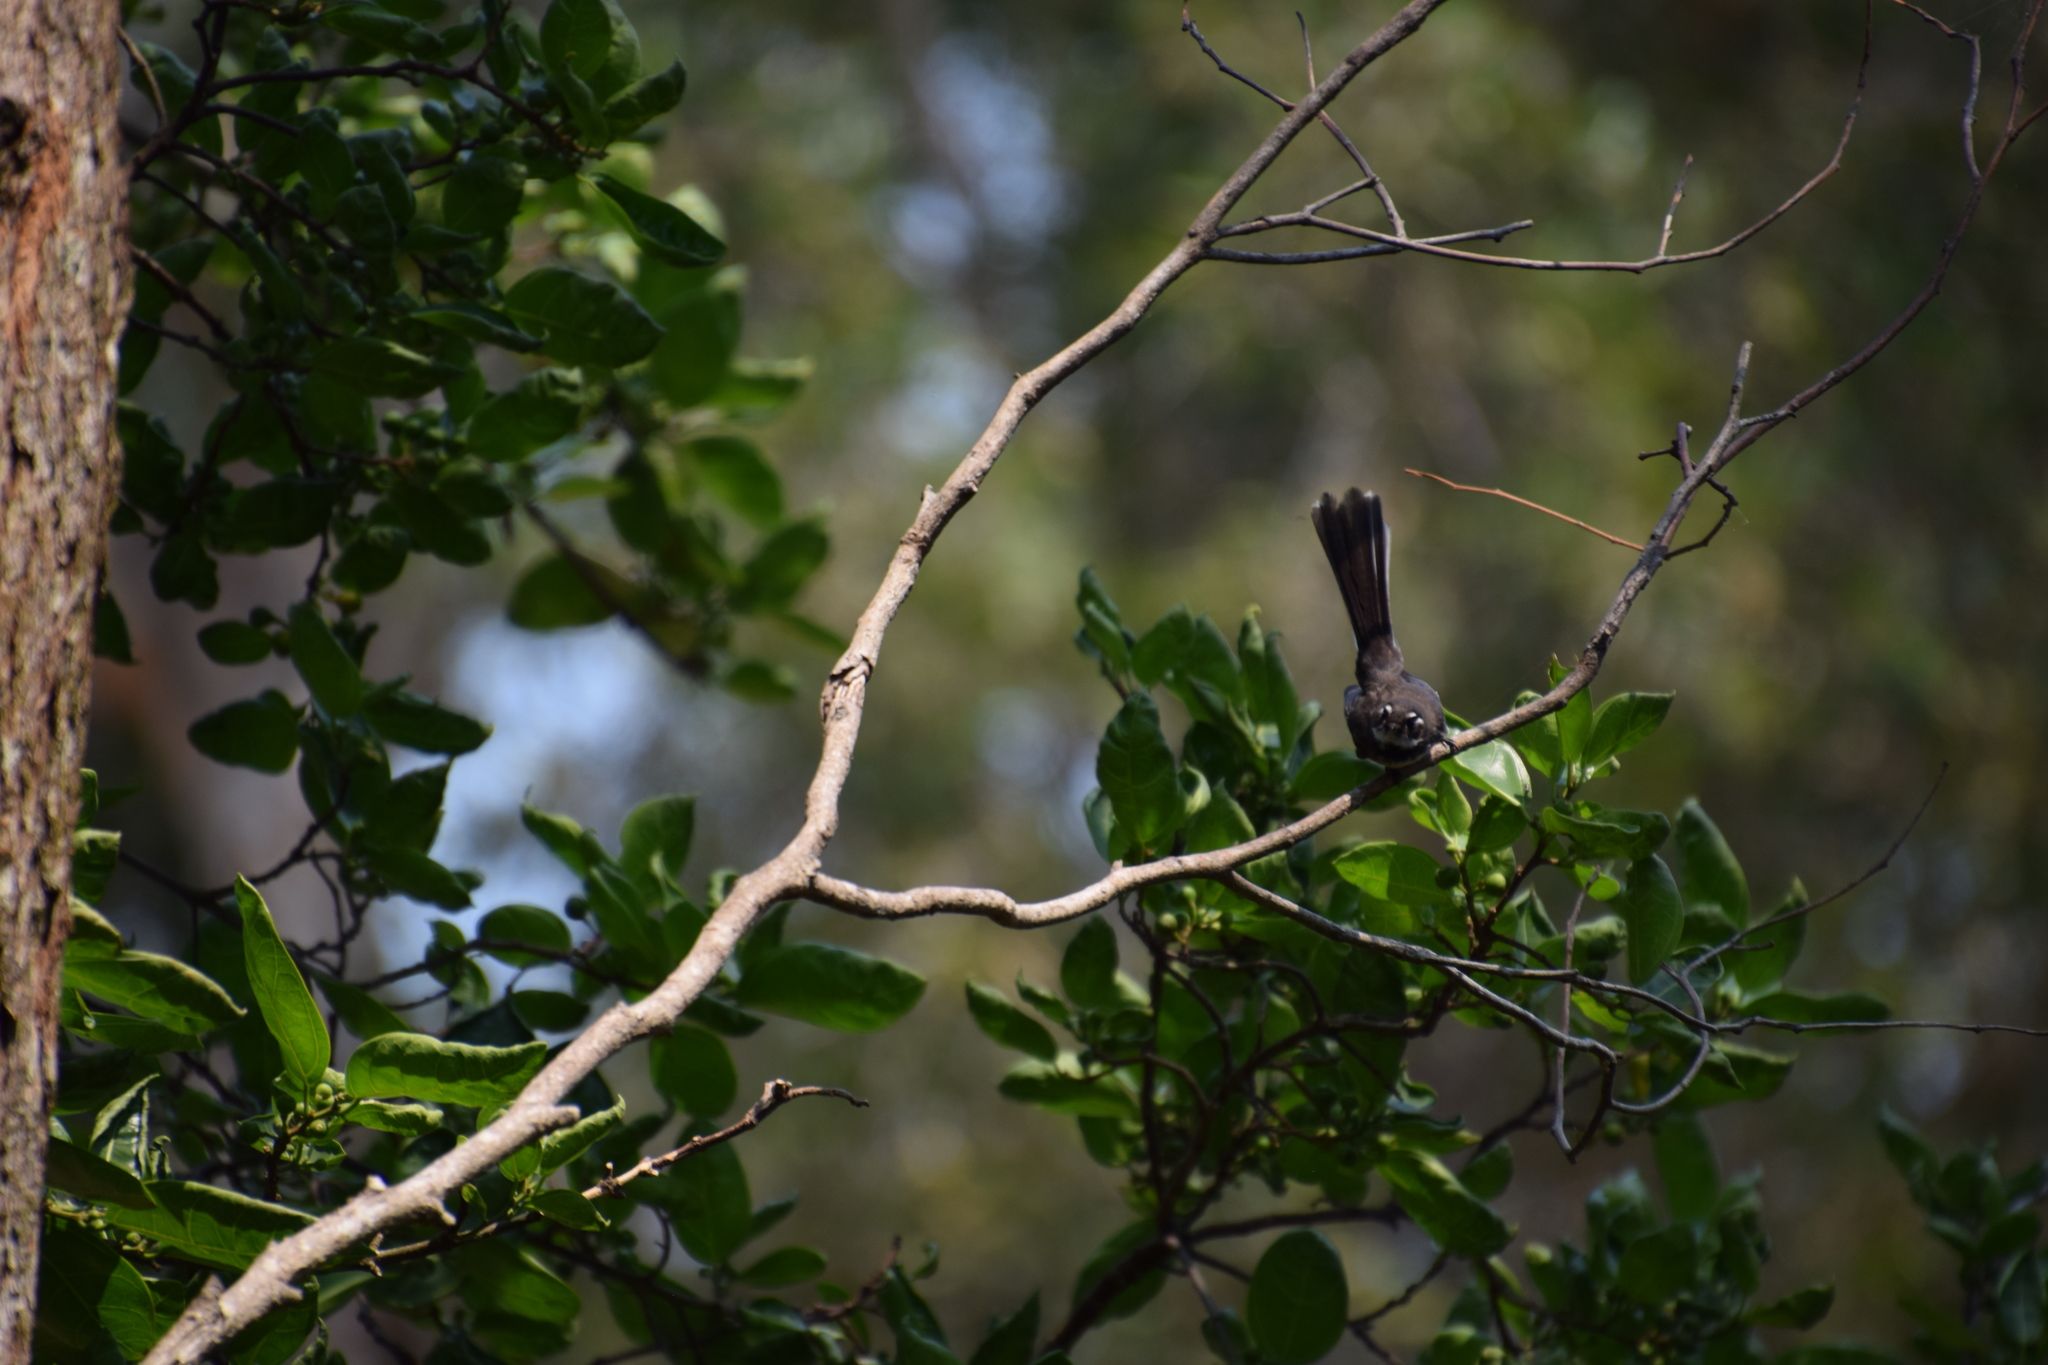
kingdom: Animalia
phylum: Chordata
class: Aves
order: Passeriformes
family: Rhipiduridae
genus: Rhipidura
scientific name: Rhipidura albiscapa
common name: Grey fantail
